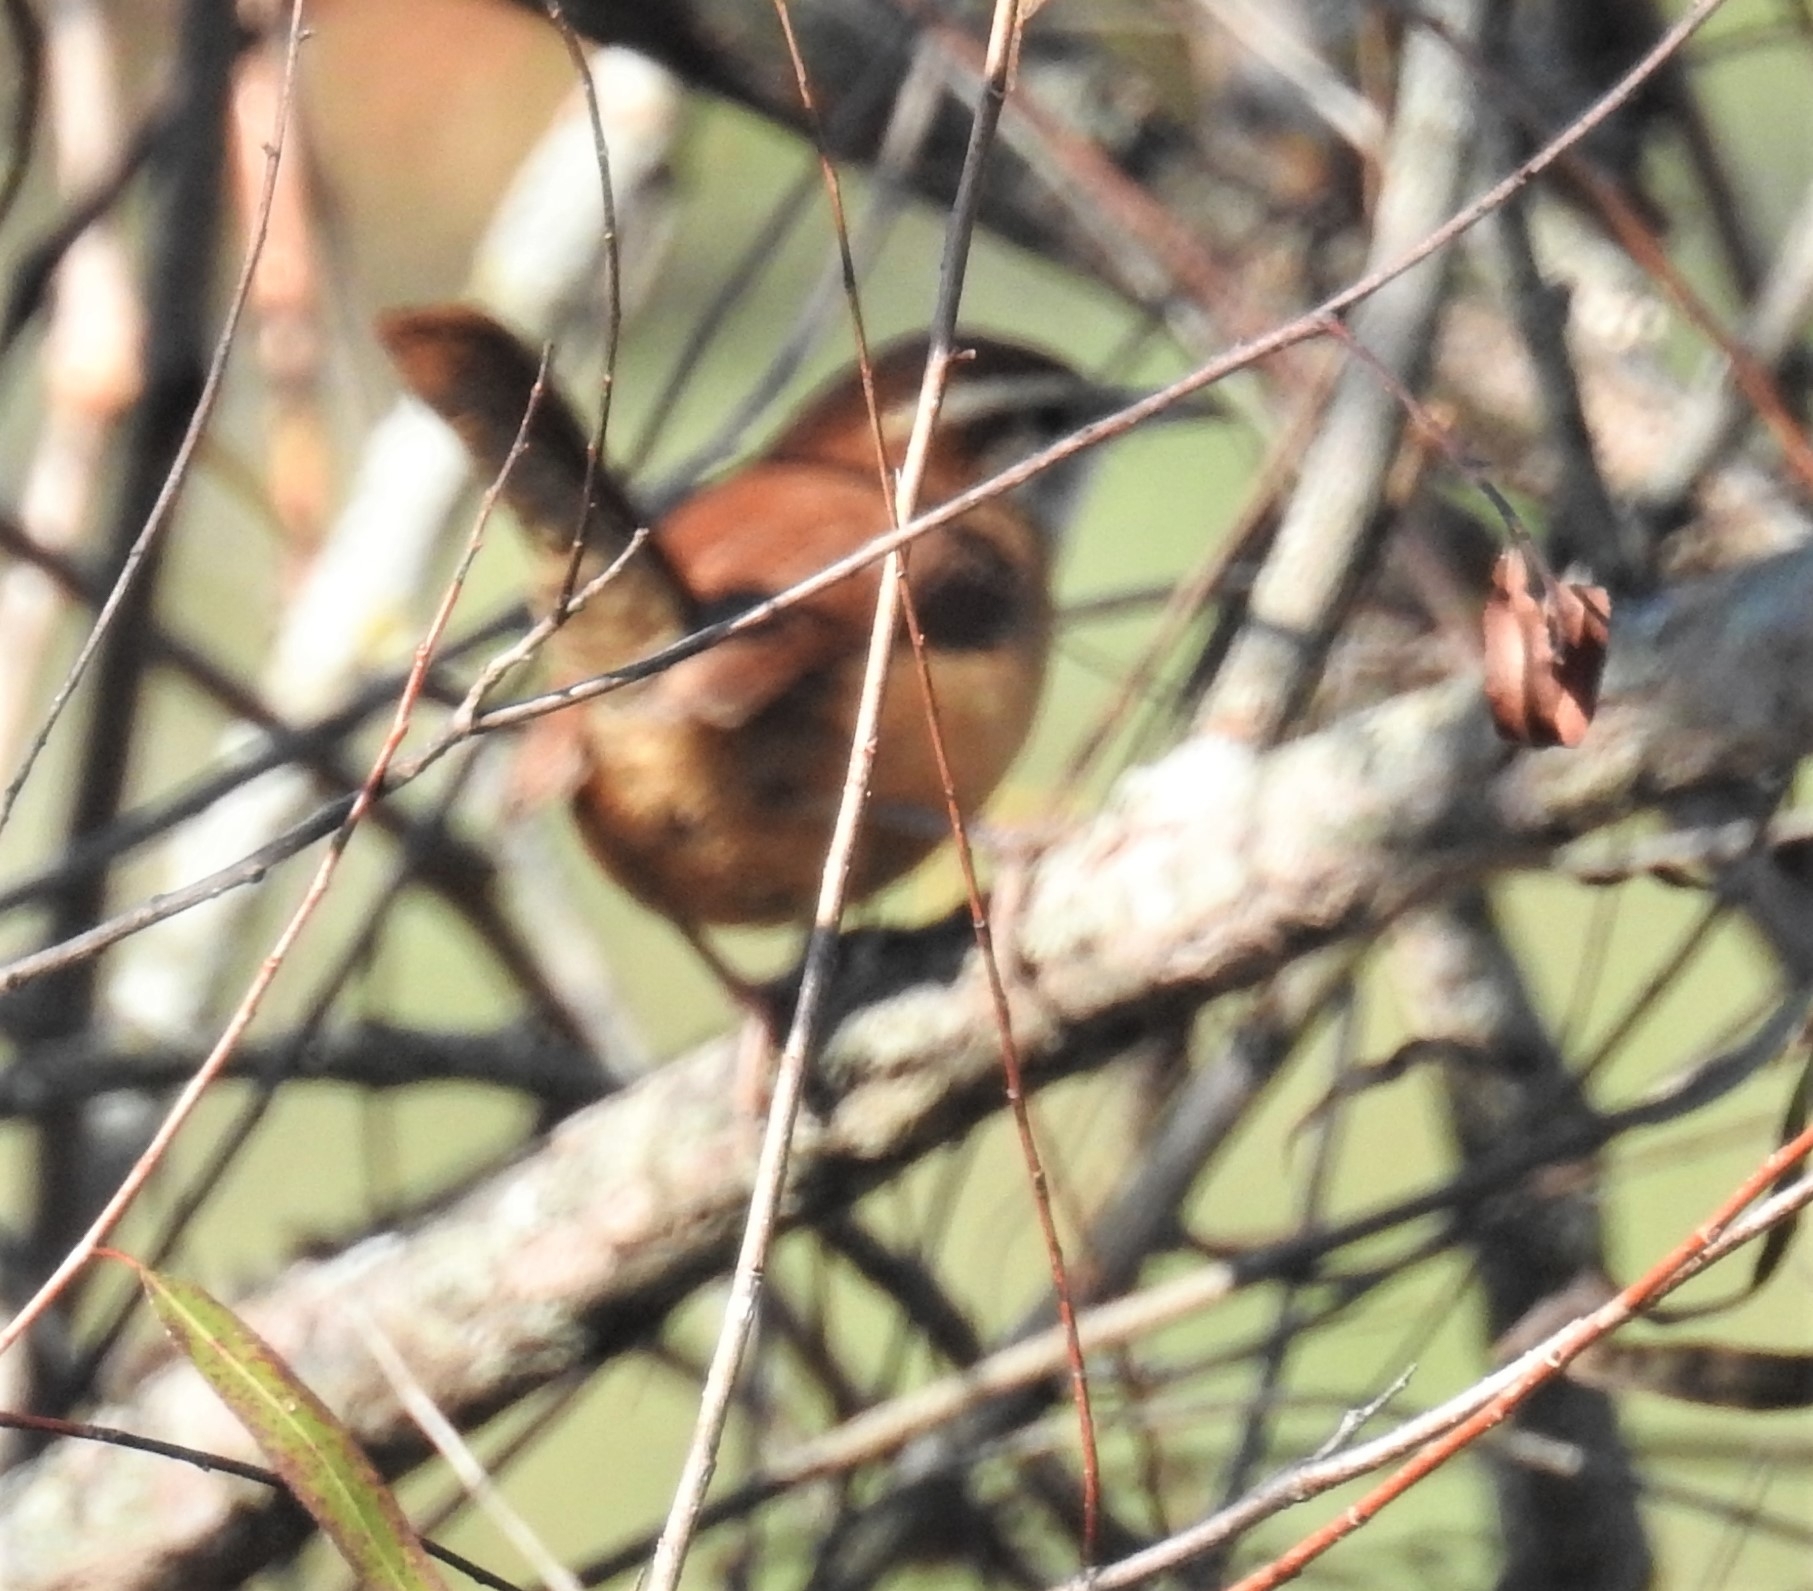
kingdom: Animalia
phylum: Chordata
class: Aves
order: Passeriformes
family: Troglodytidae
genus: Thryothorus
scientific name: Thryothorus ludovicianus
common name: Carolina wren
